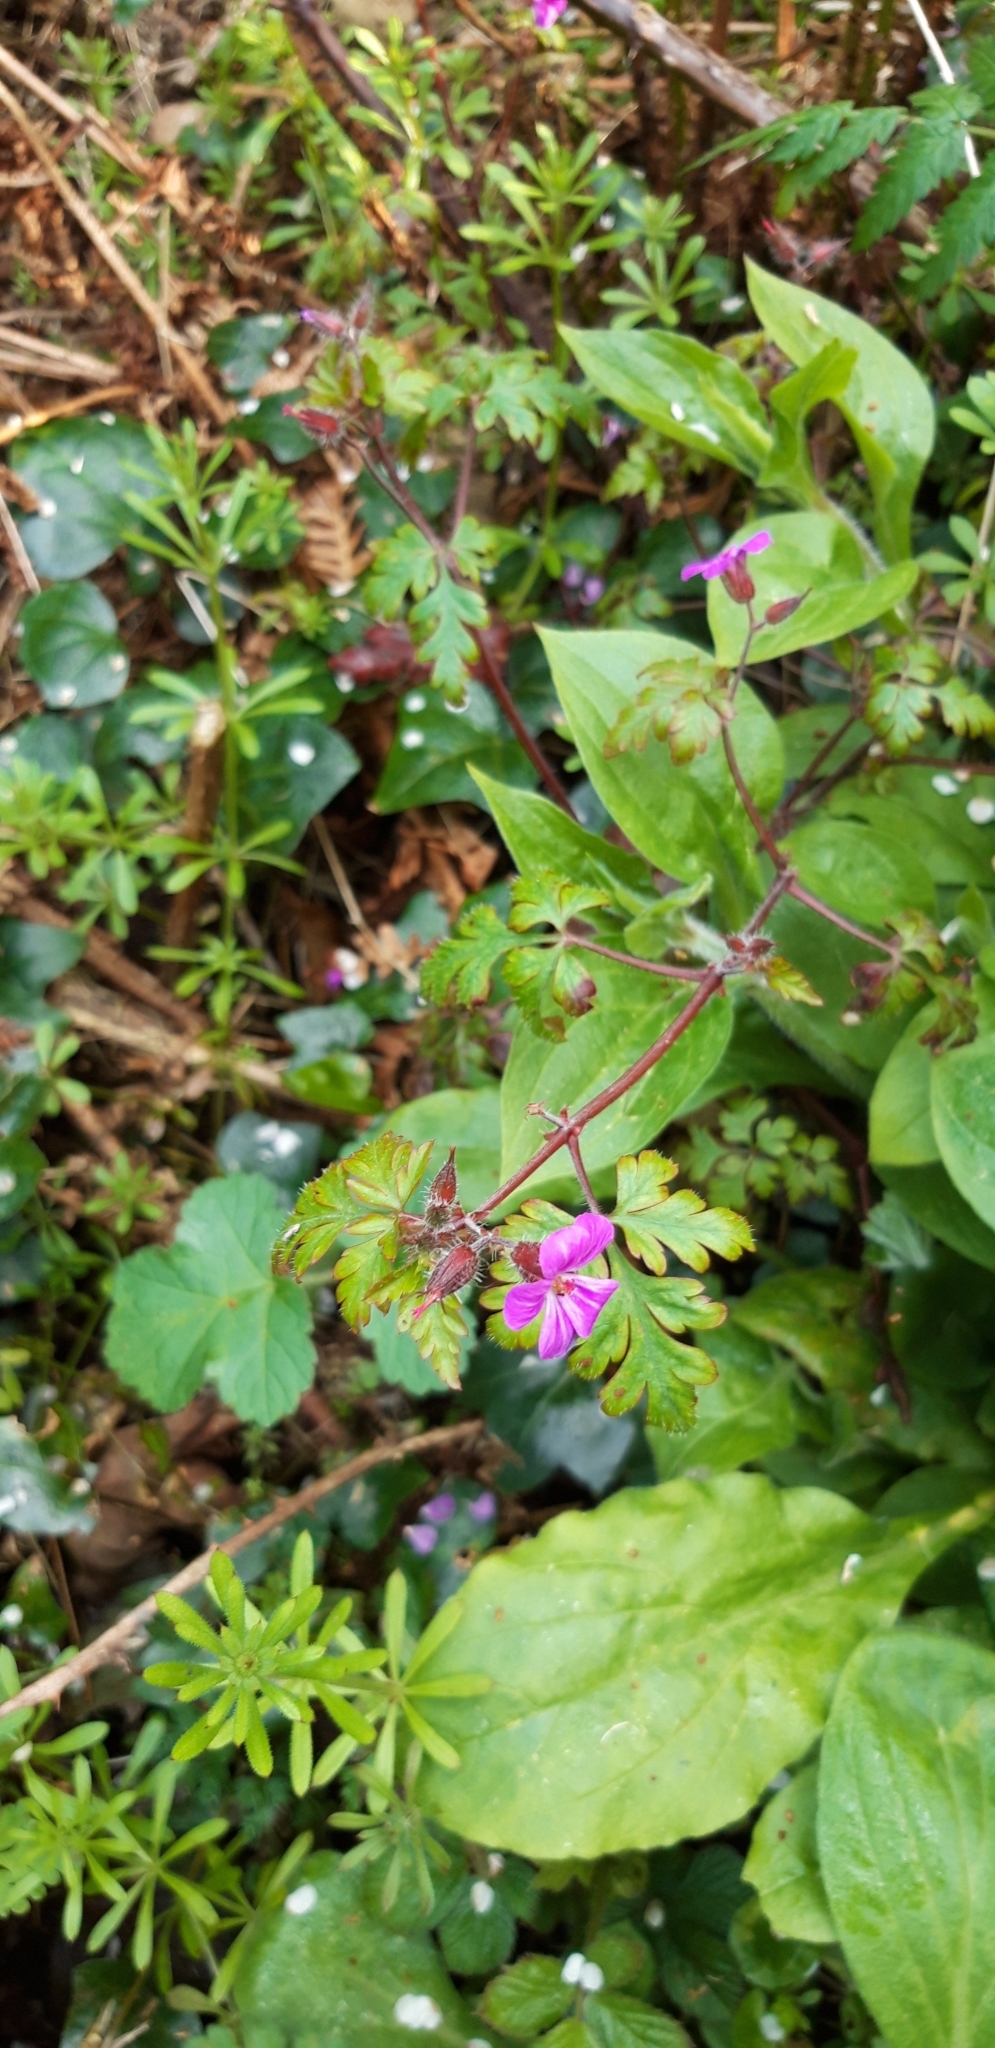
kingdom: Plantae
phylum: Tracheophyta
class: Magnoliopsida
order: Geraniales
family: Geraniaceae
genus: Geranium
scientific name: Geranium robertianum
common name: Herb-robert
